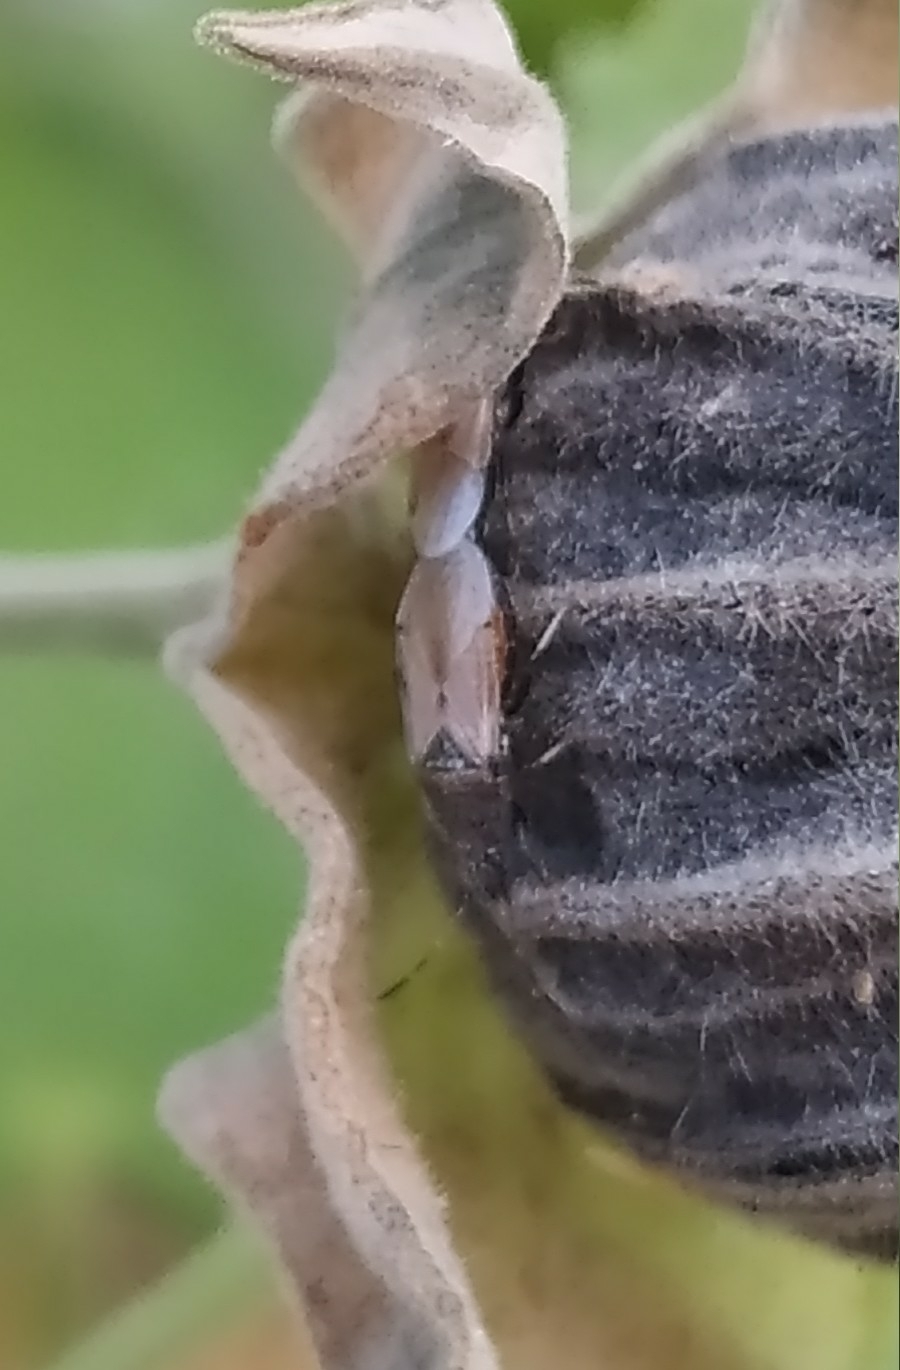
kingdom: Animalia
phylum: Arthropoda
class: Insecta
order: Hemiptera
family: Oxycarenidae
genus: Oxycarenus
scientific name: Oxycarenus hyalinipennis
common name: Cotton seed bug
